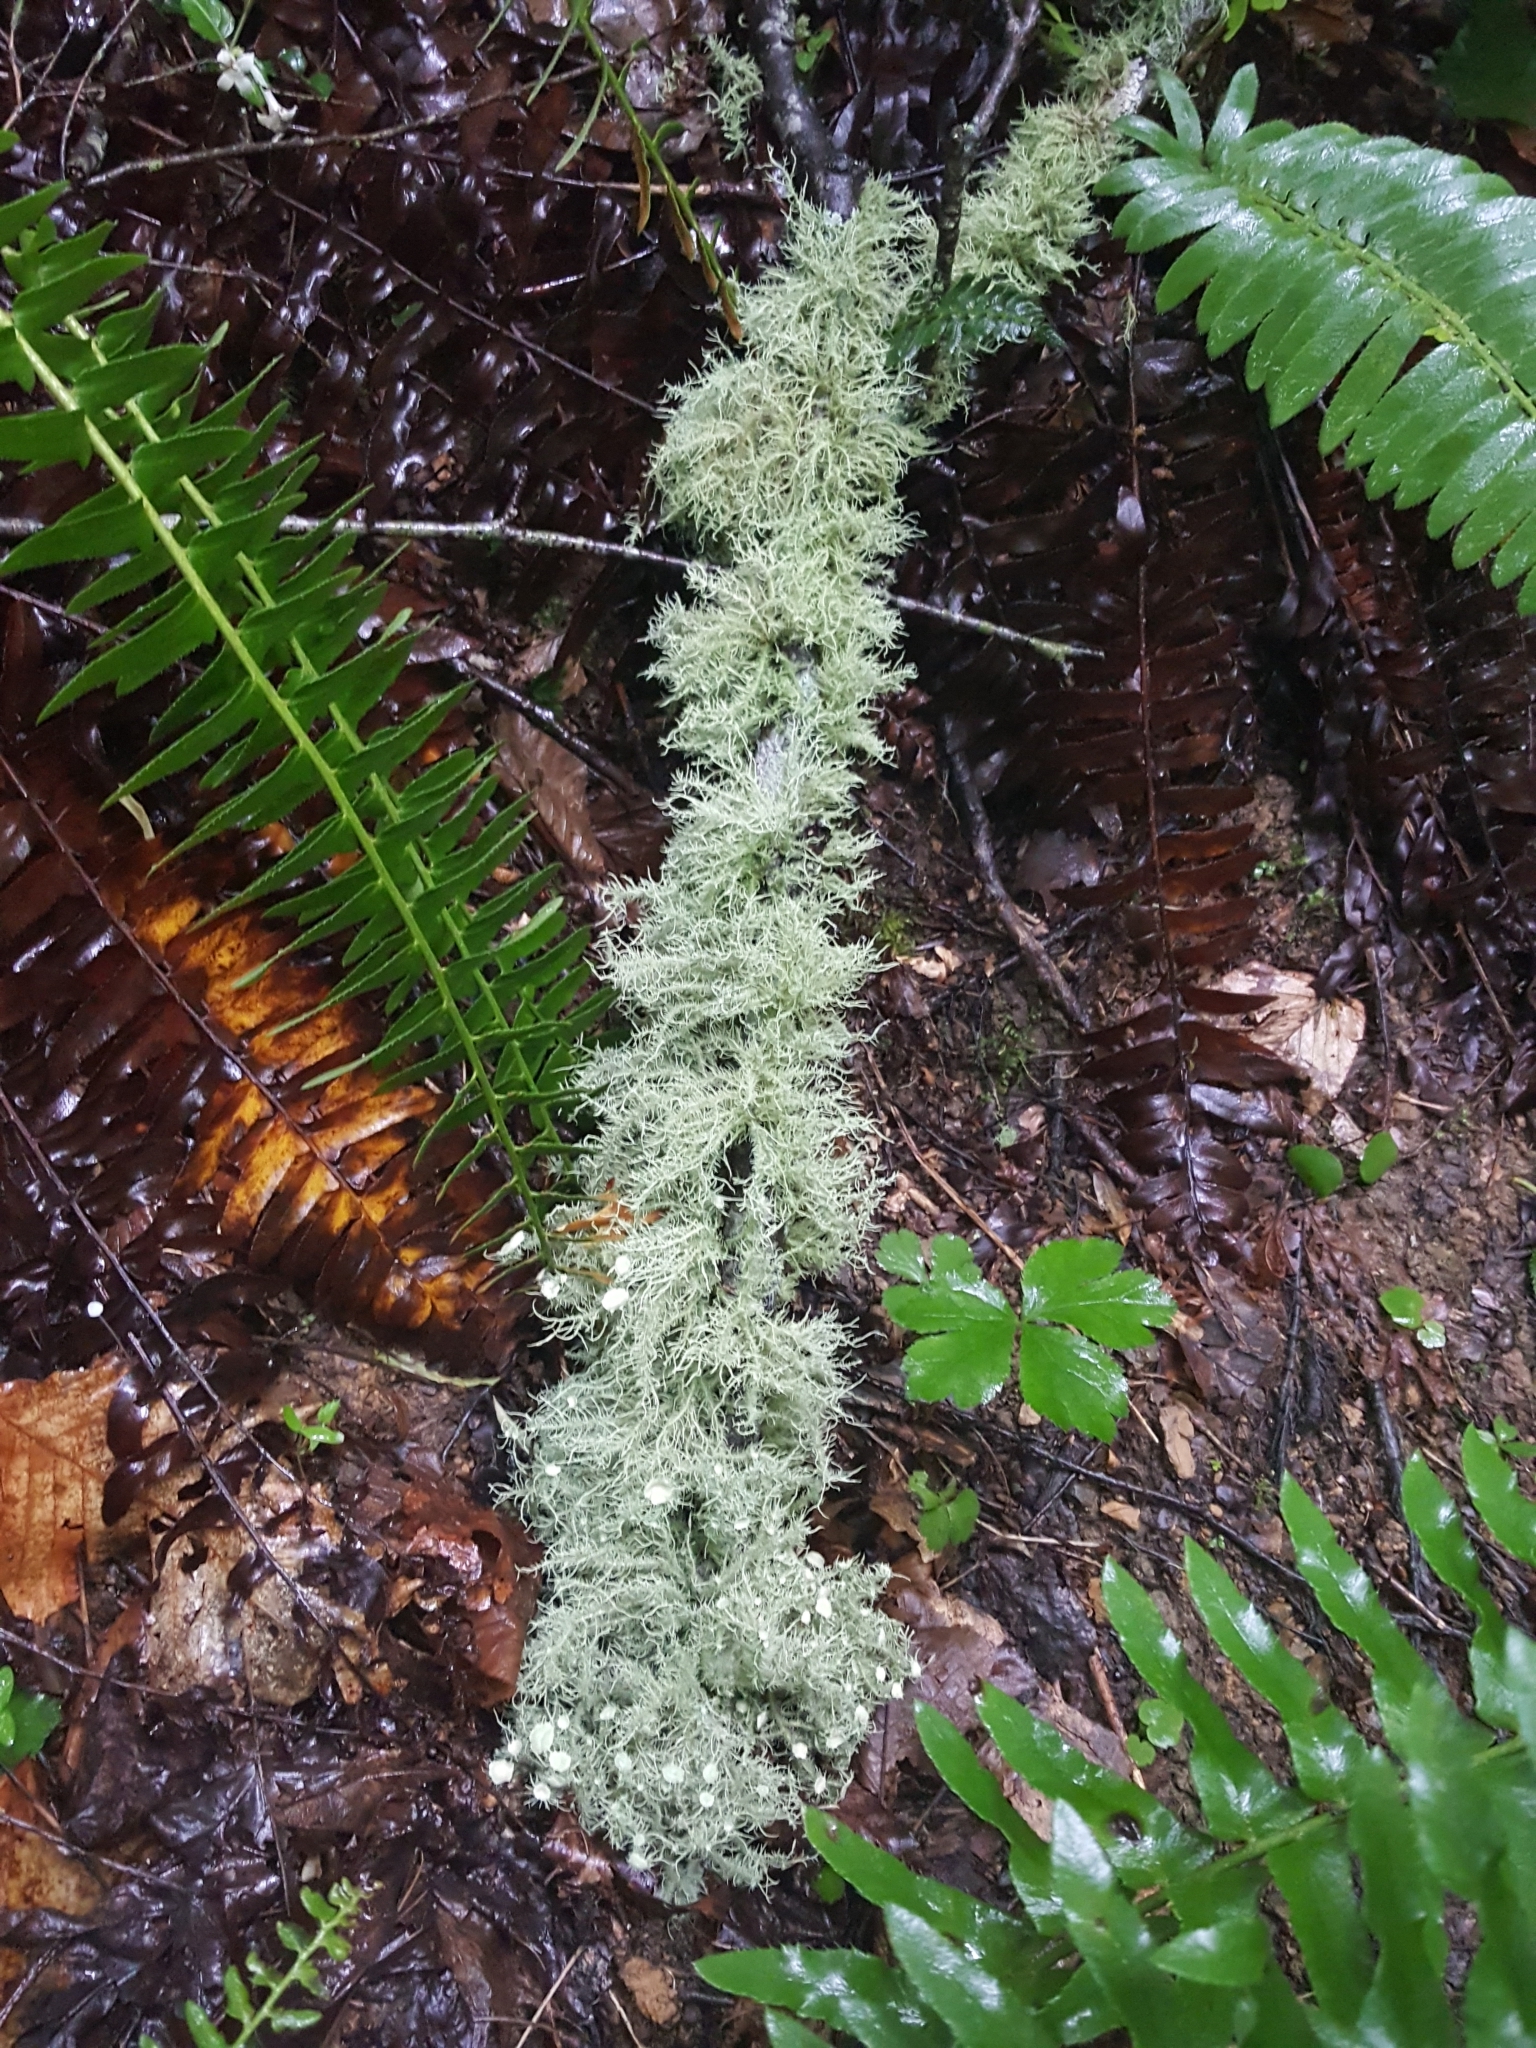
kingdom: Fungi
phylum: Ascomycota
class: Lecanoromycetes
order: Lecanorales
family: Parmeliaceae
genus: Usnea
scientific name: Usnea strigosa
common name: Bushy beard lichen
